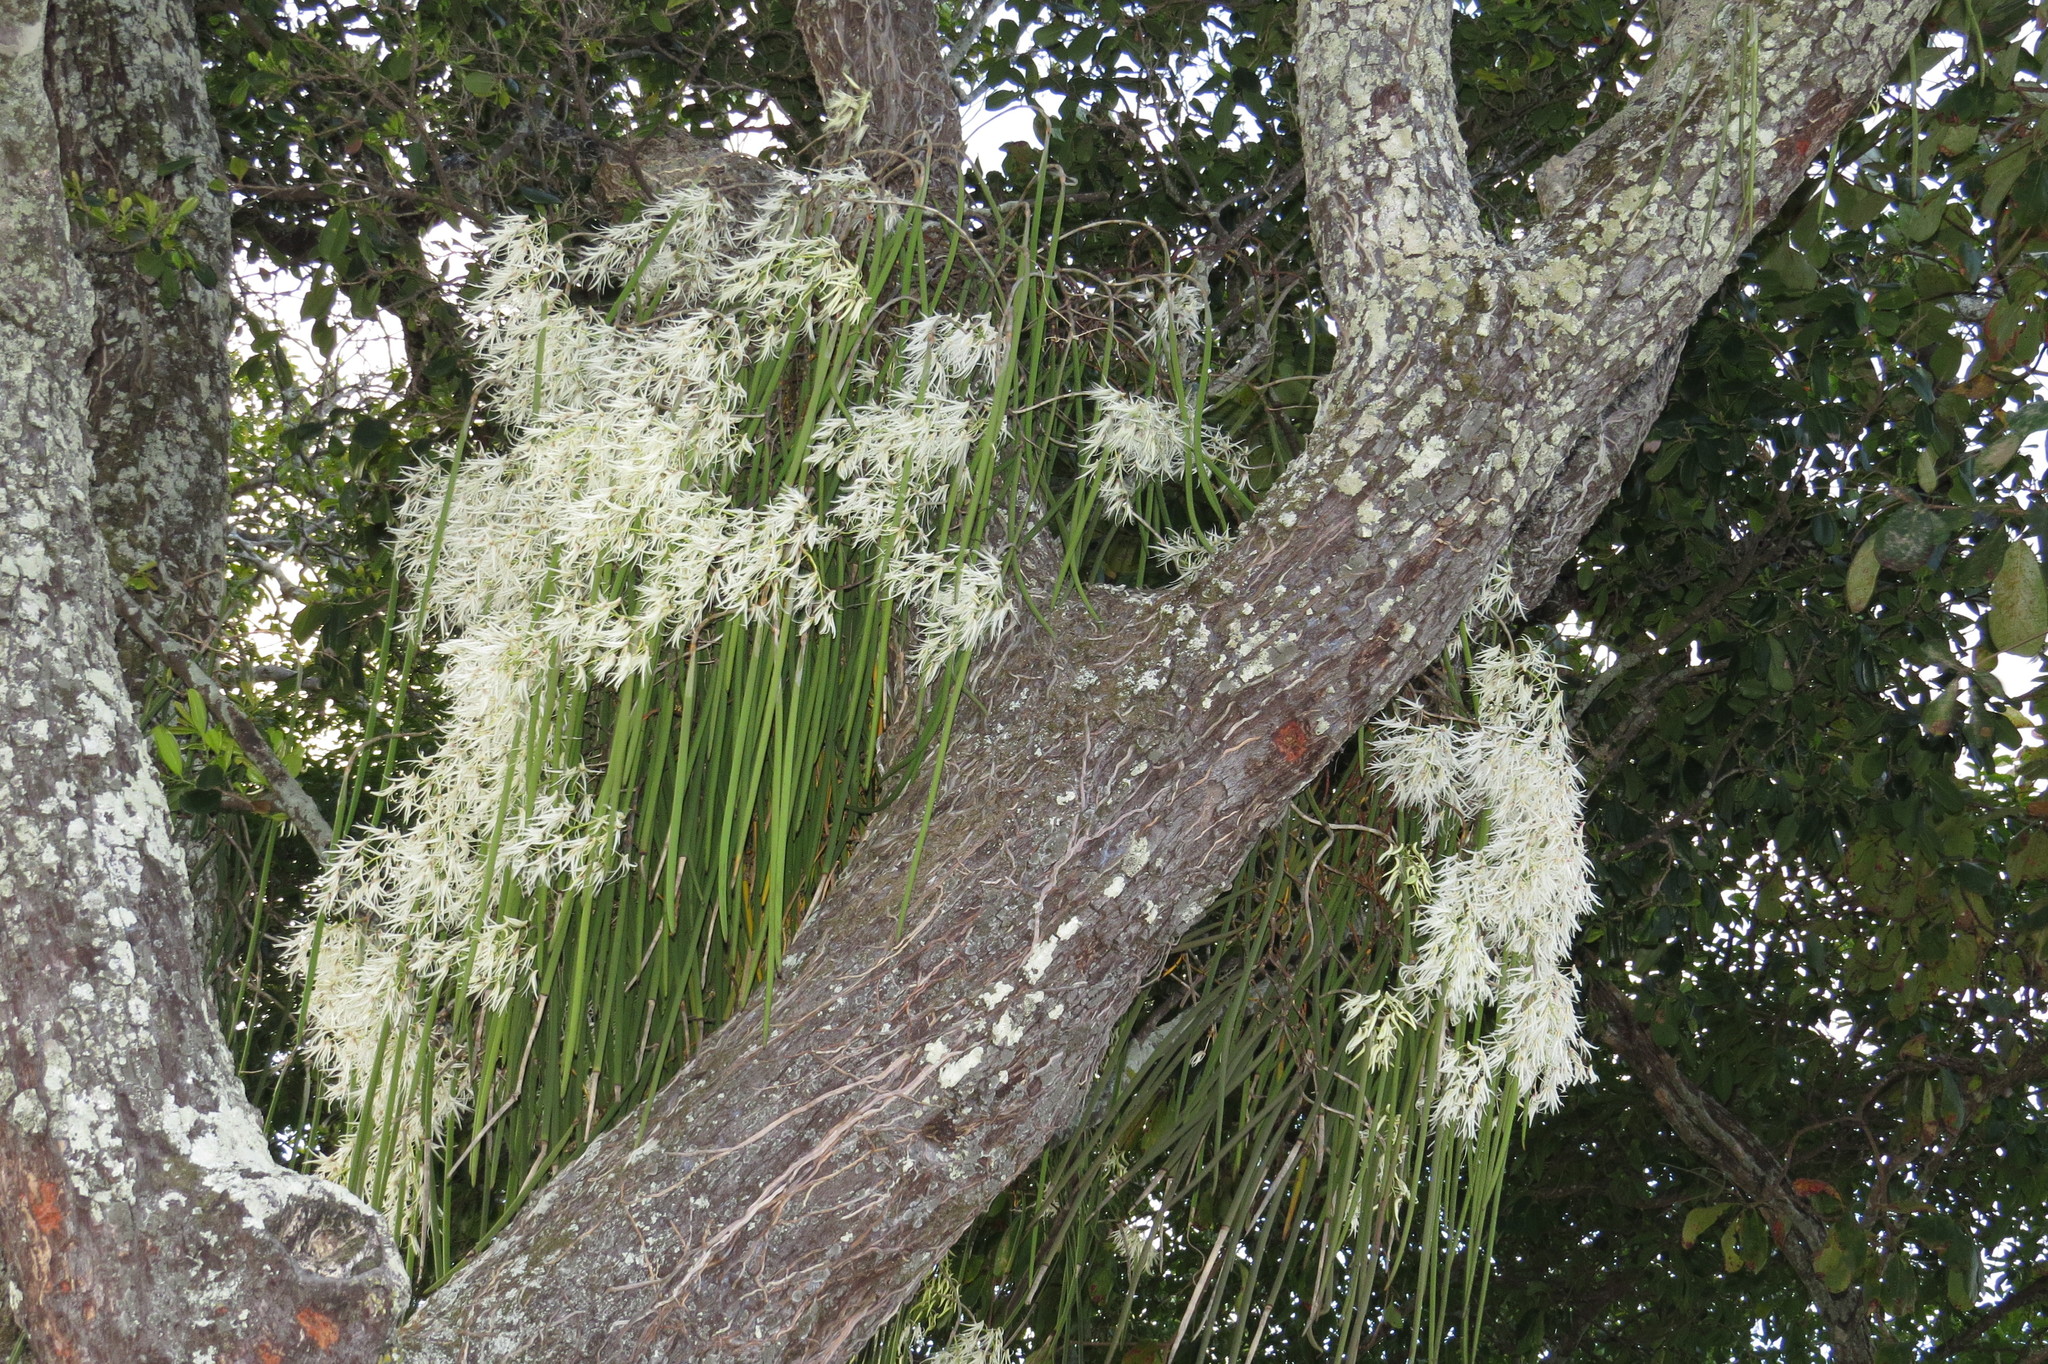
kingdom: Plantae
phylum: Tracheophyta
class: Liliopsida
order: Asparagales
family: Orchidaceae
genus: Dendrobium
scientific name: Dendrobium teretifolium
